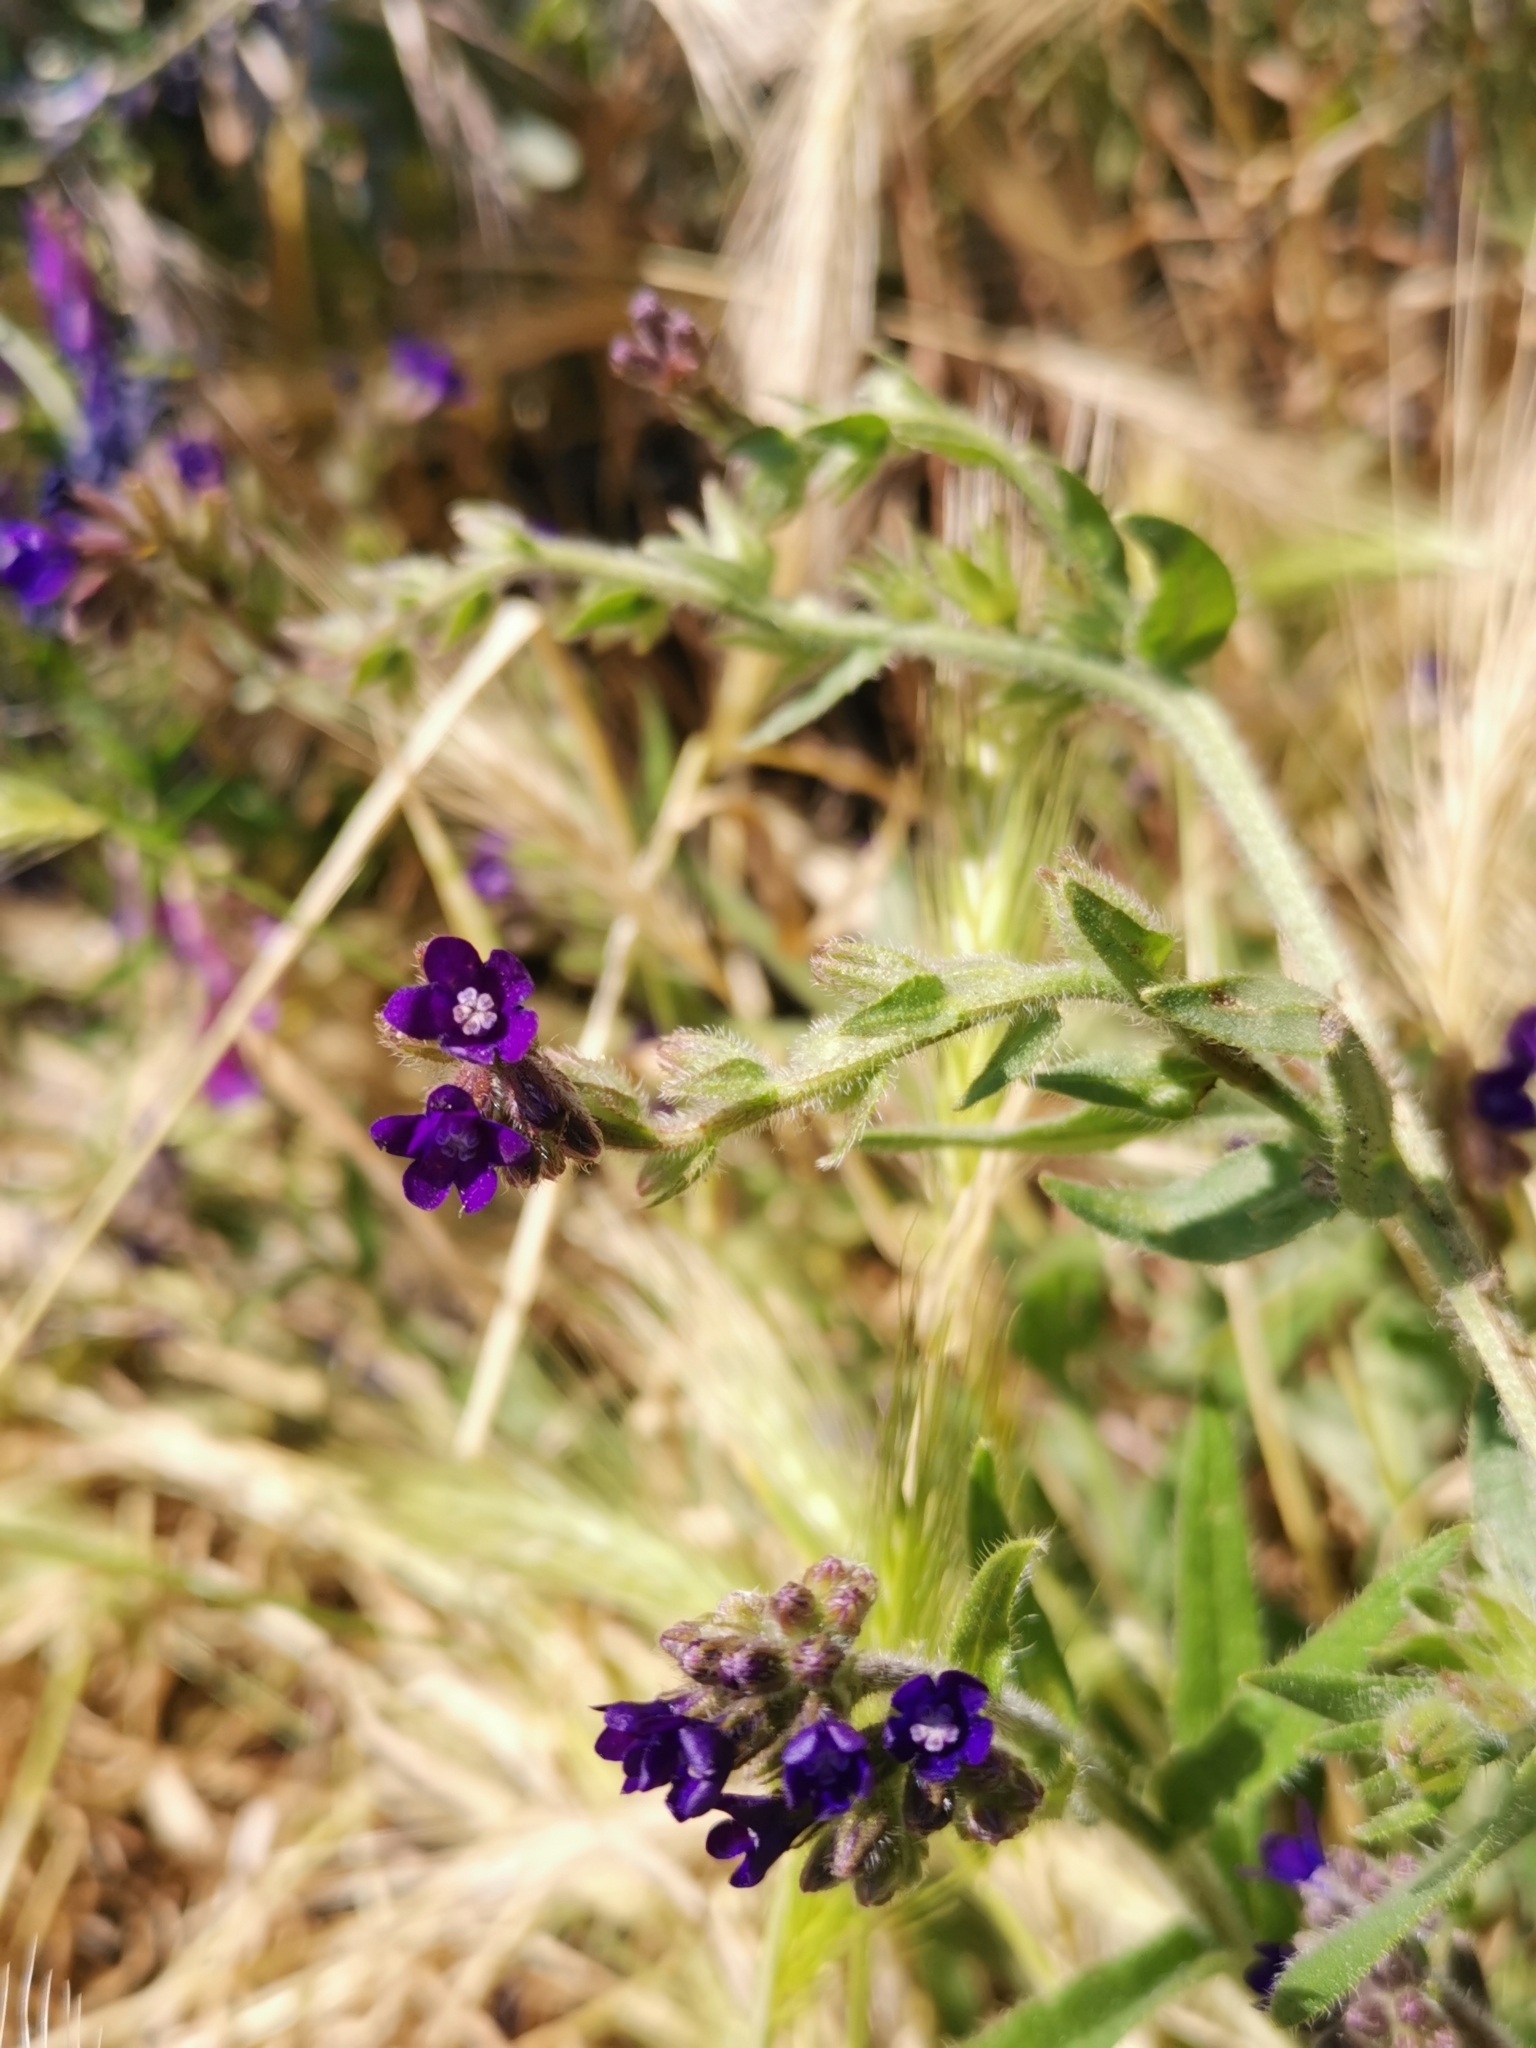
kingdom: Plantae
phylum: Tracheophyta
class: Magnoliopsida
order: Boraginales
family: Boraginaceae
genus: Anchusa
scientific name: Anchusa officinalis
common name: Alkanet
